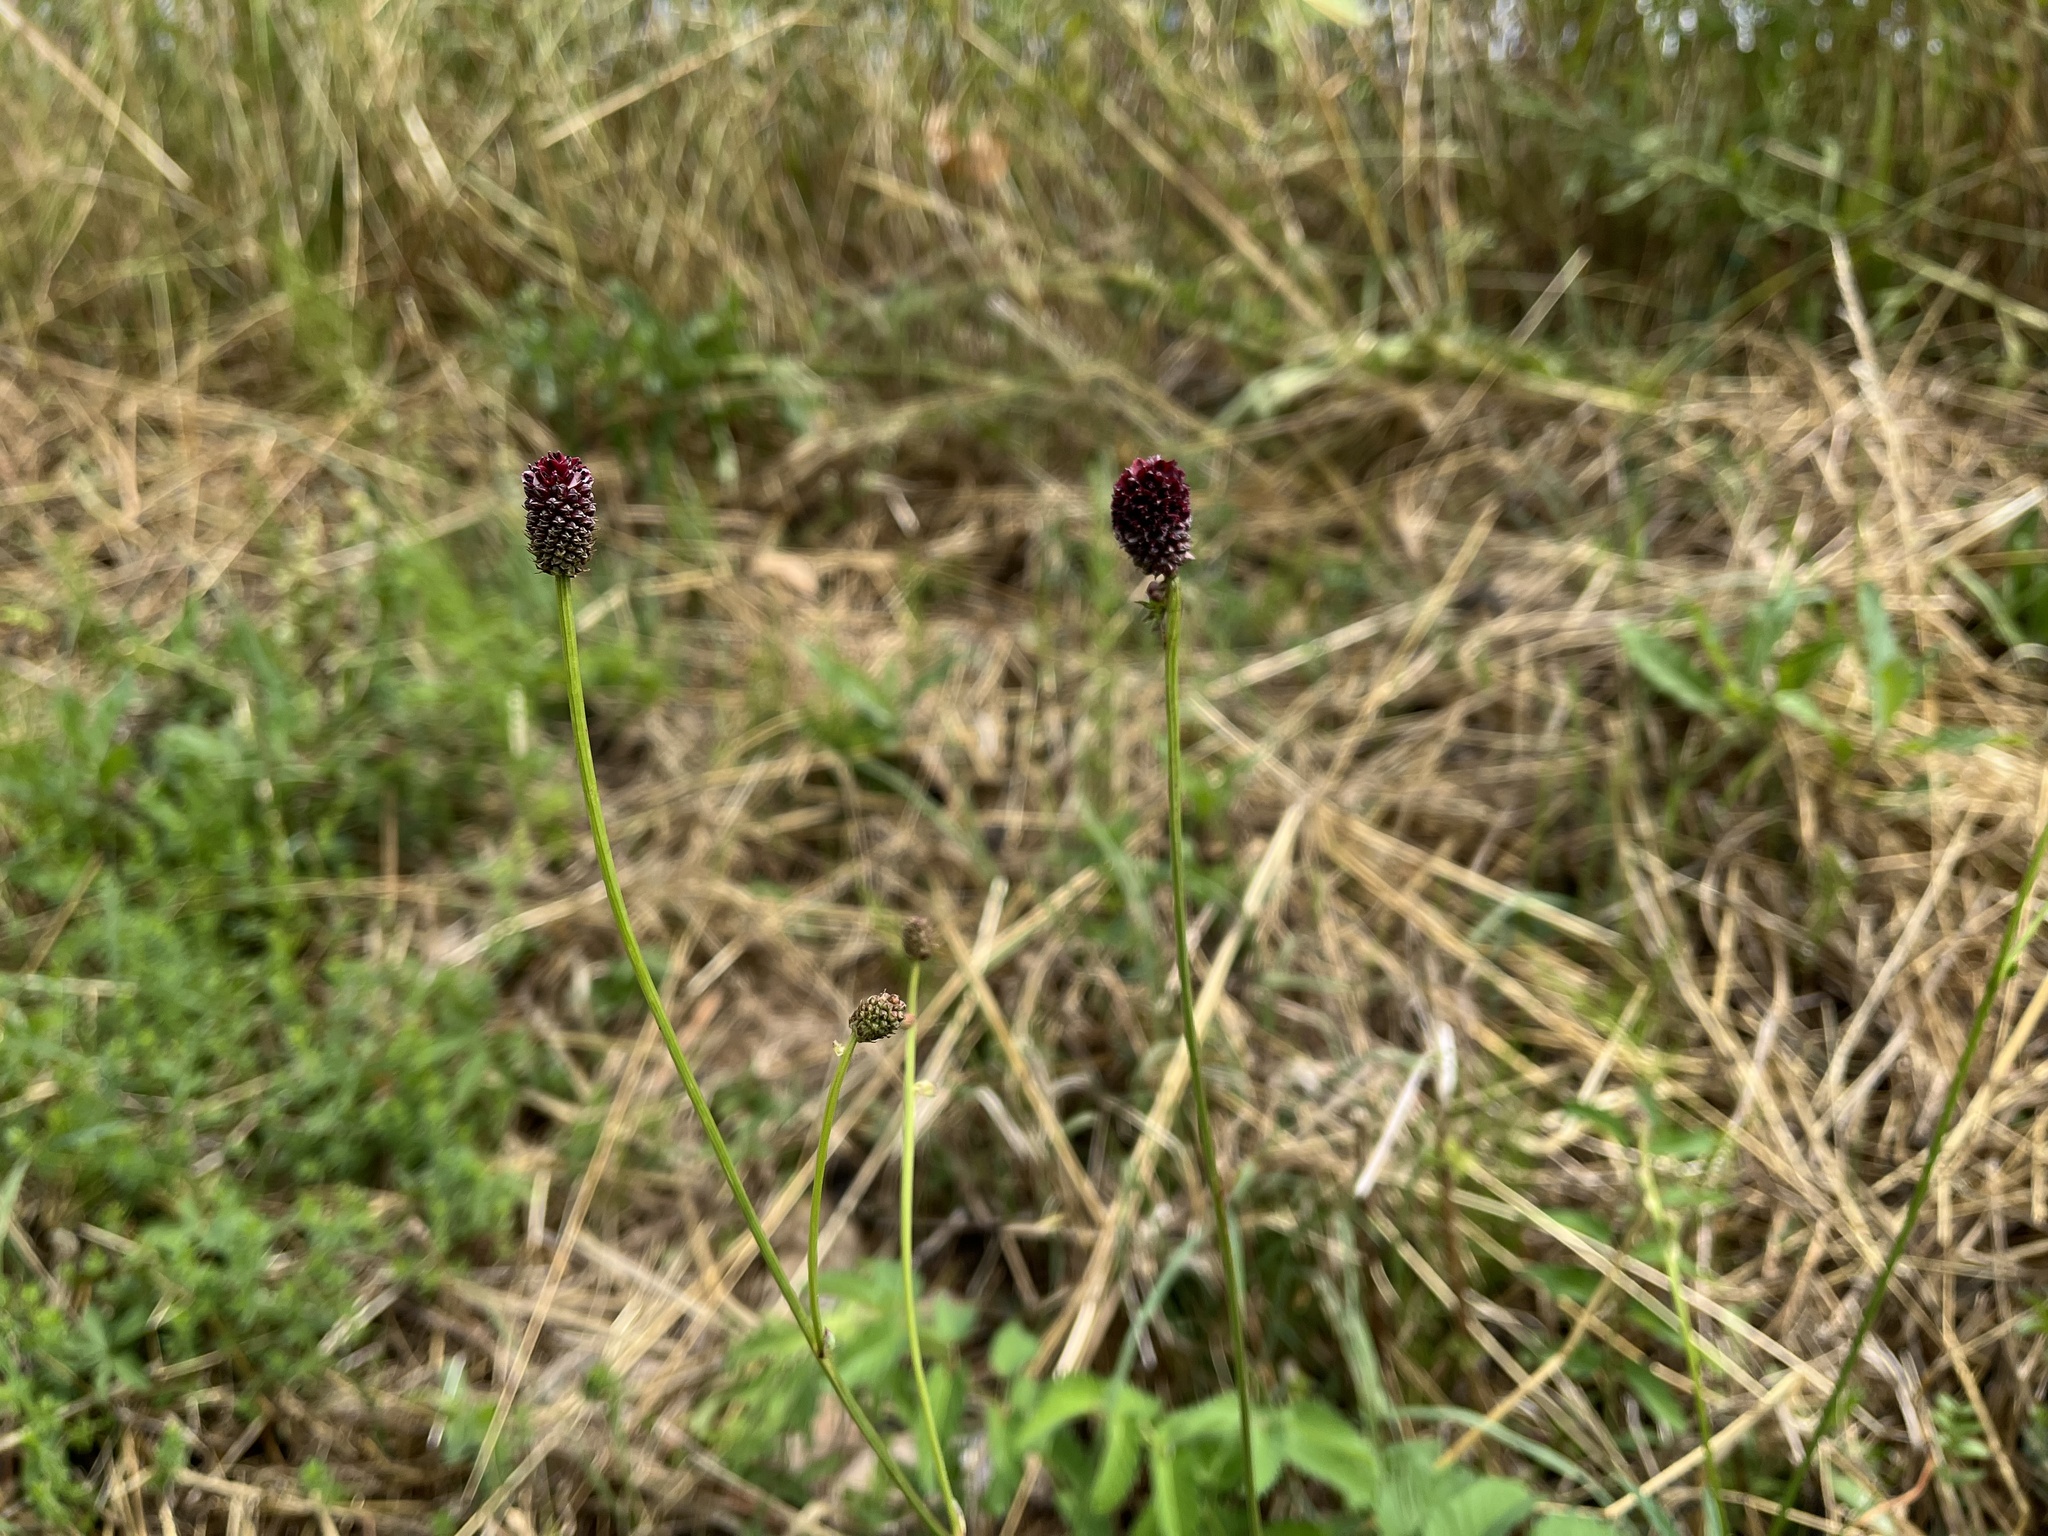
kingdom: Plantae
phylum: Tracheophyta
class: Magnoliopsida
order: Rosales
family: Rosaceae
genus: Sanguisorba
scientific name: Sanguisorba officinalis
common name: Great burnet
